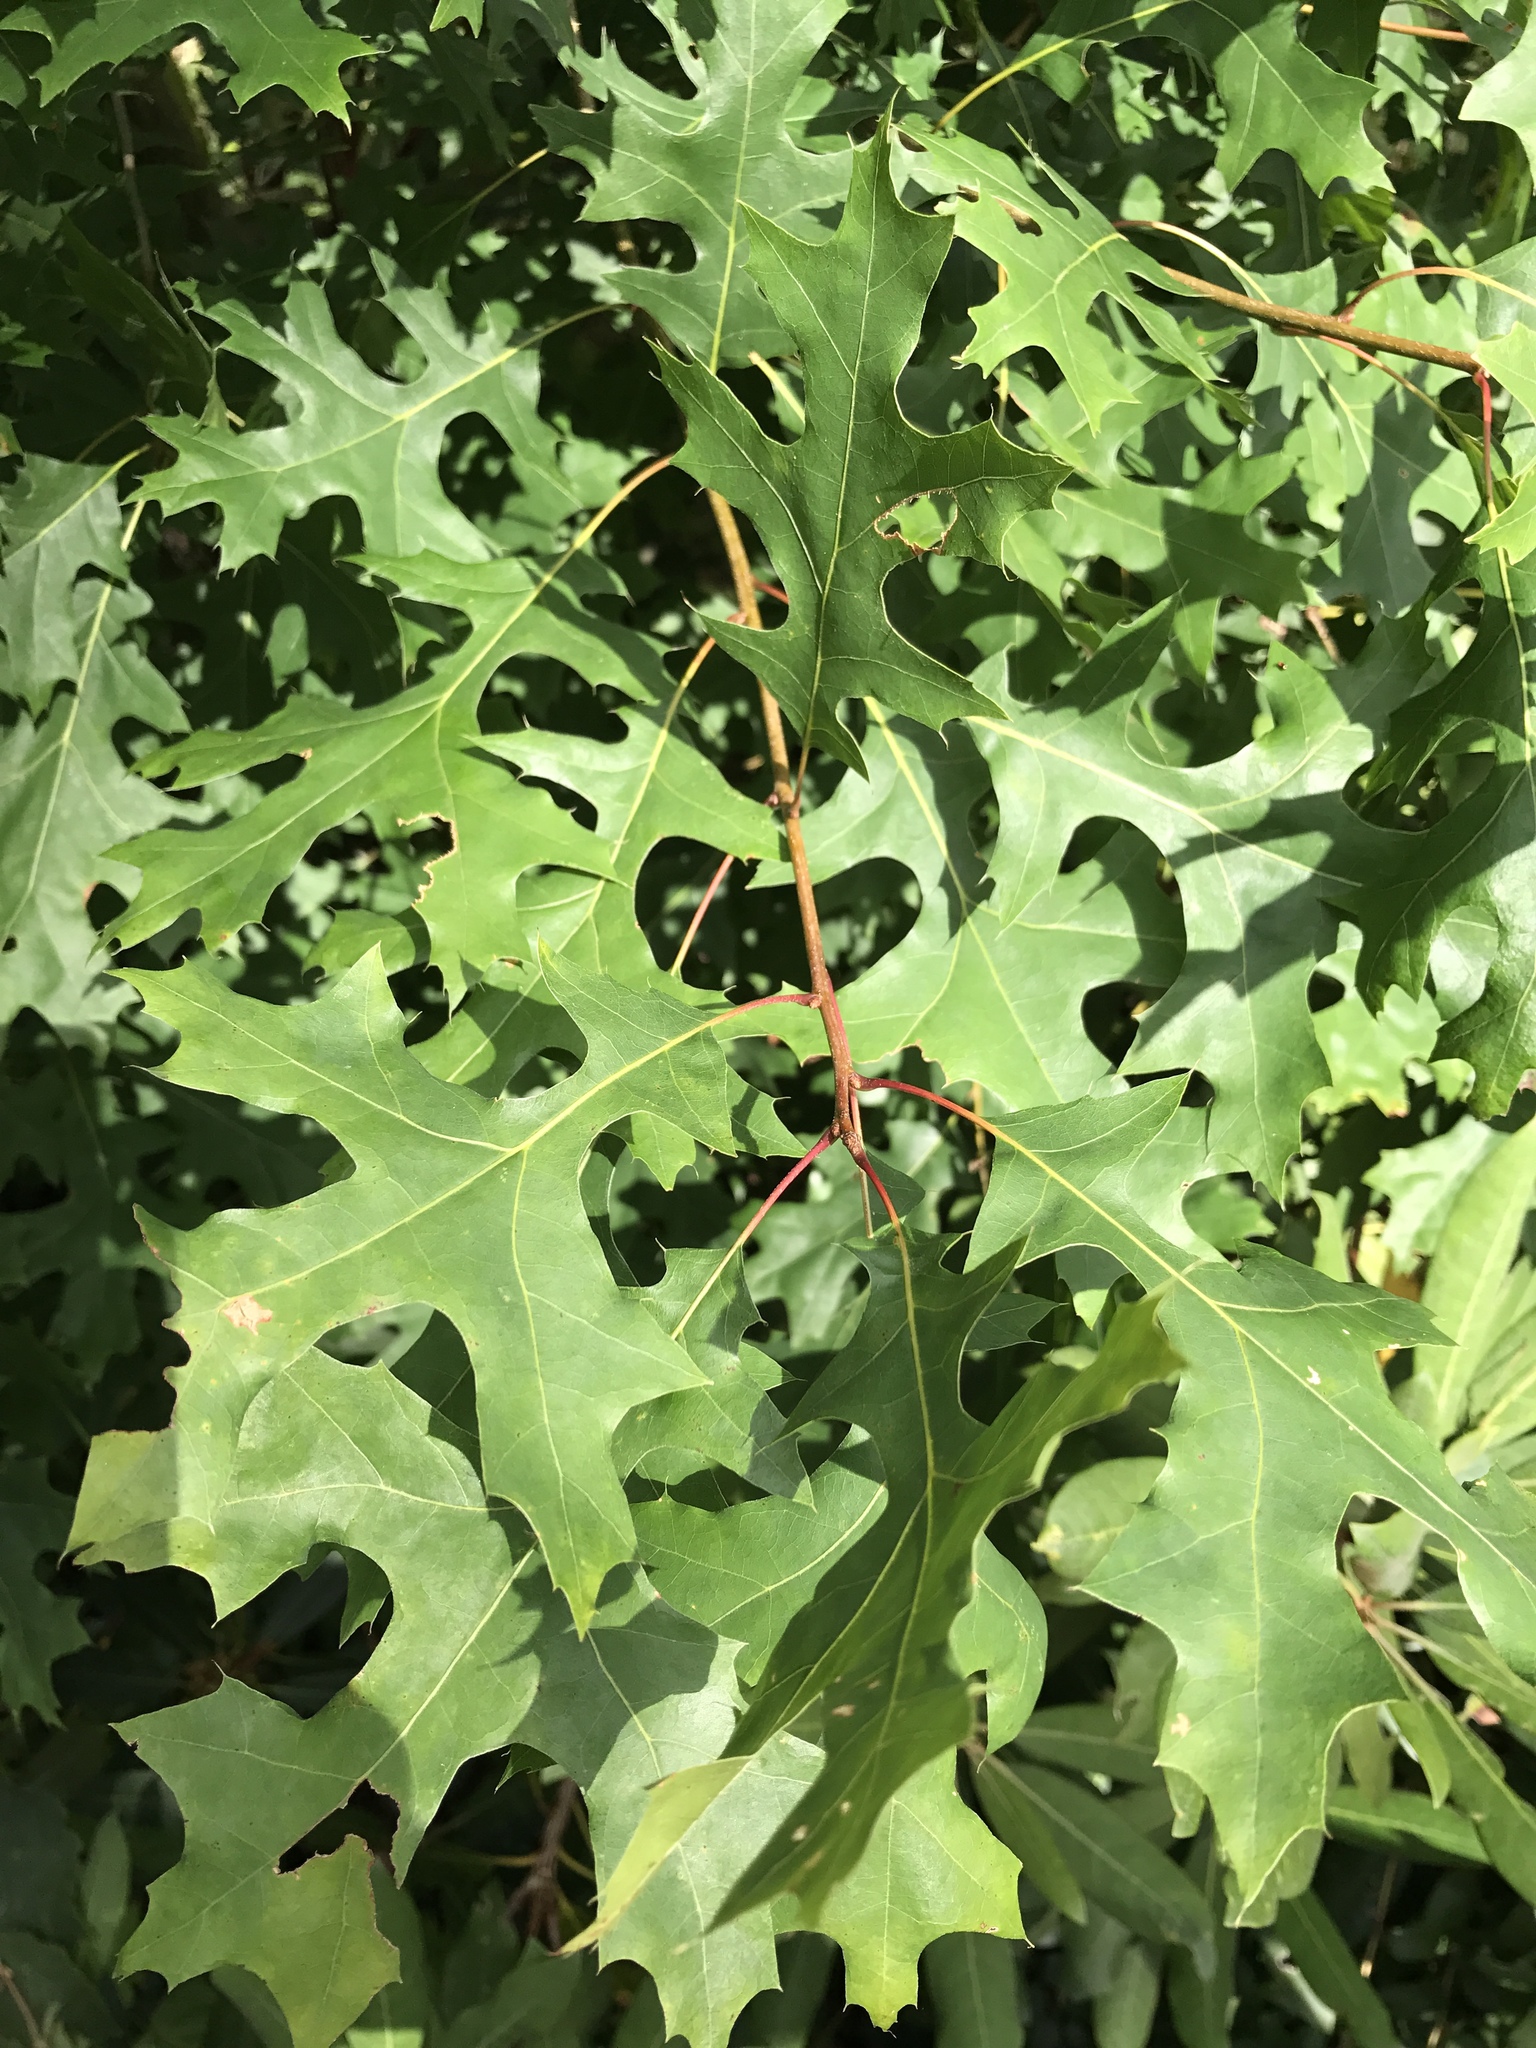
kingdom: Plantae
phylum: Tracheophyta
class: Magnoliopsida
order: Fagales
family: Fagaceae
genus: Quercus
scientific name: Quercus coccinea
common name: Scarlet oak
